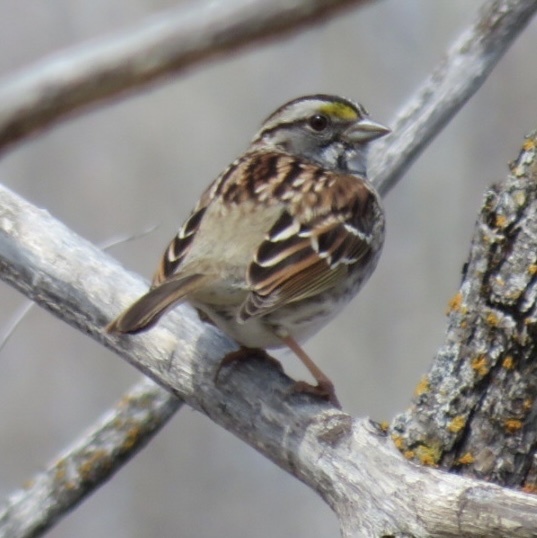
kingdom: Animalia
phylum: Chordata
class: Aves
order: Passeriformes
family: Passerellidae
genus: Zonotrichia
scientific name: Zonotrichia albicollis
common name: White-throated sparrow
